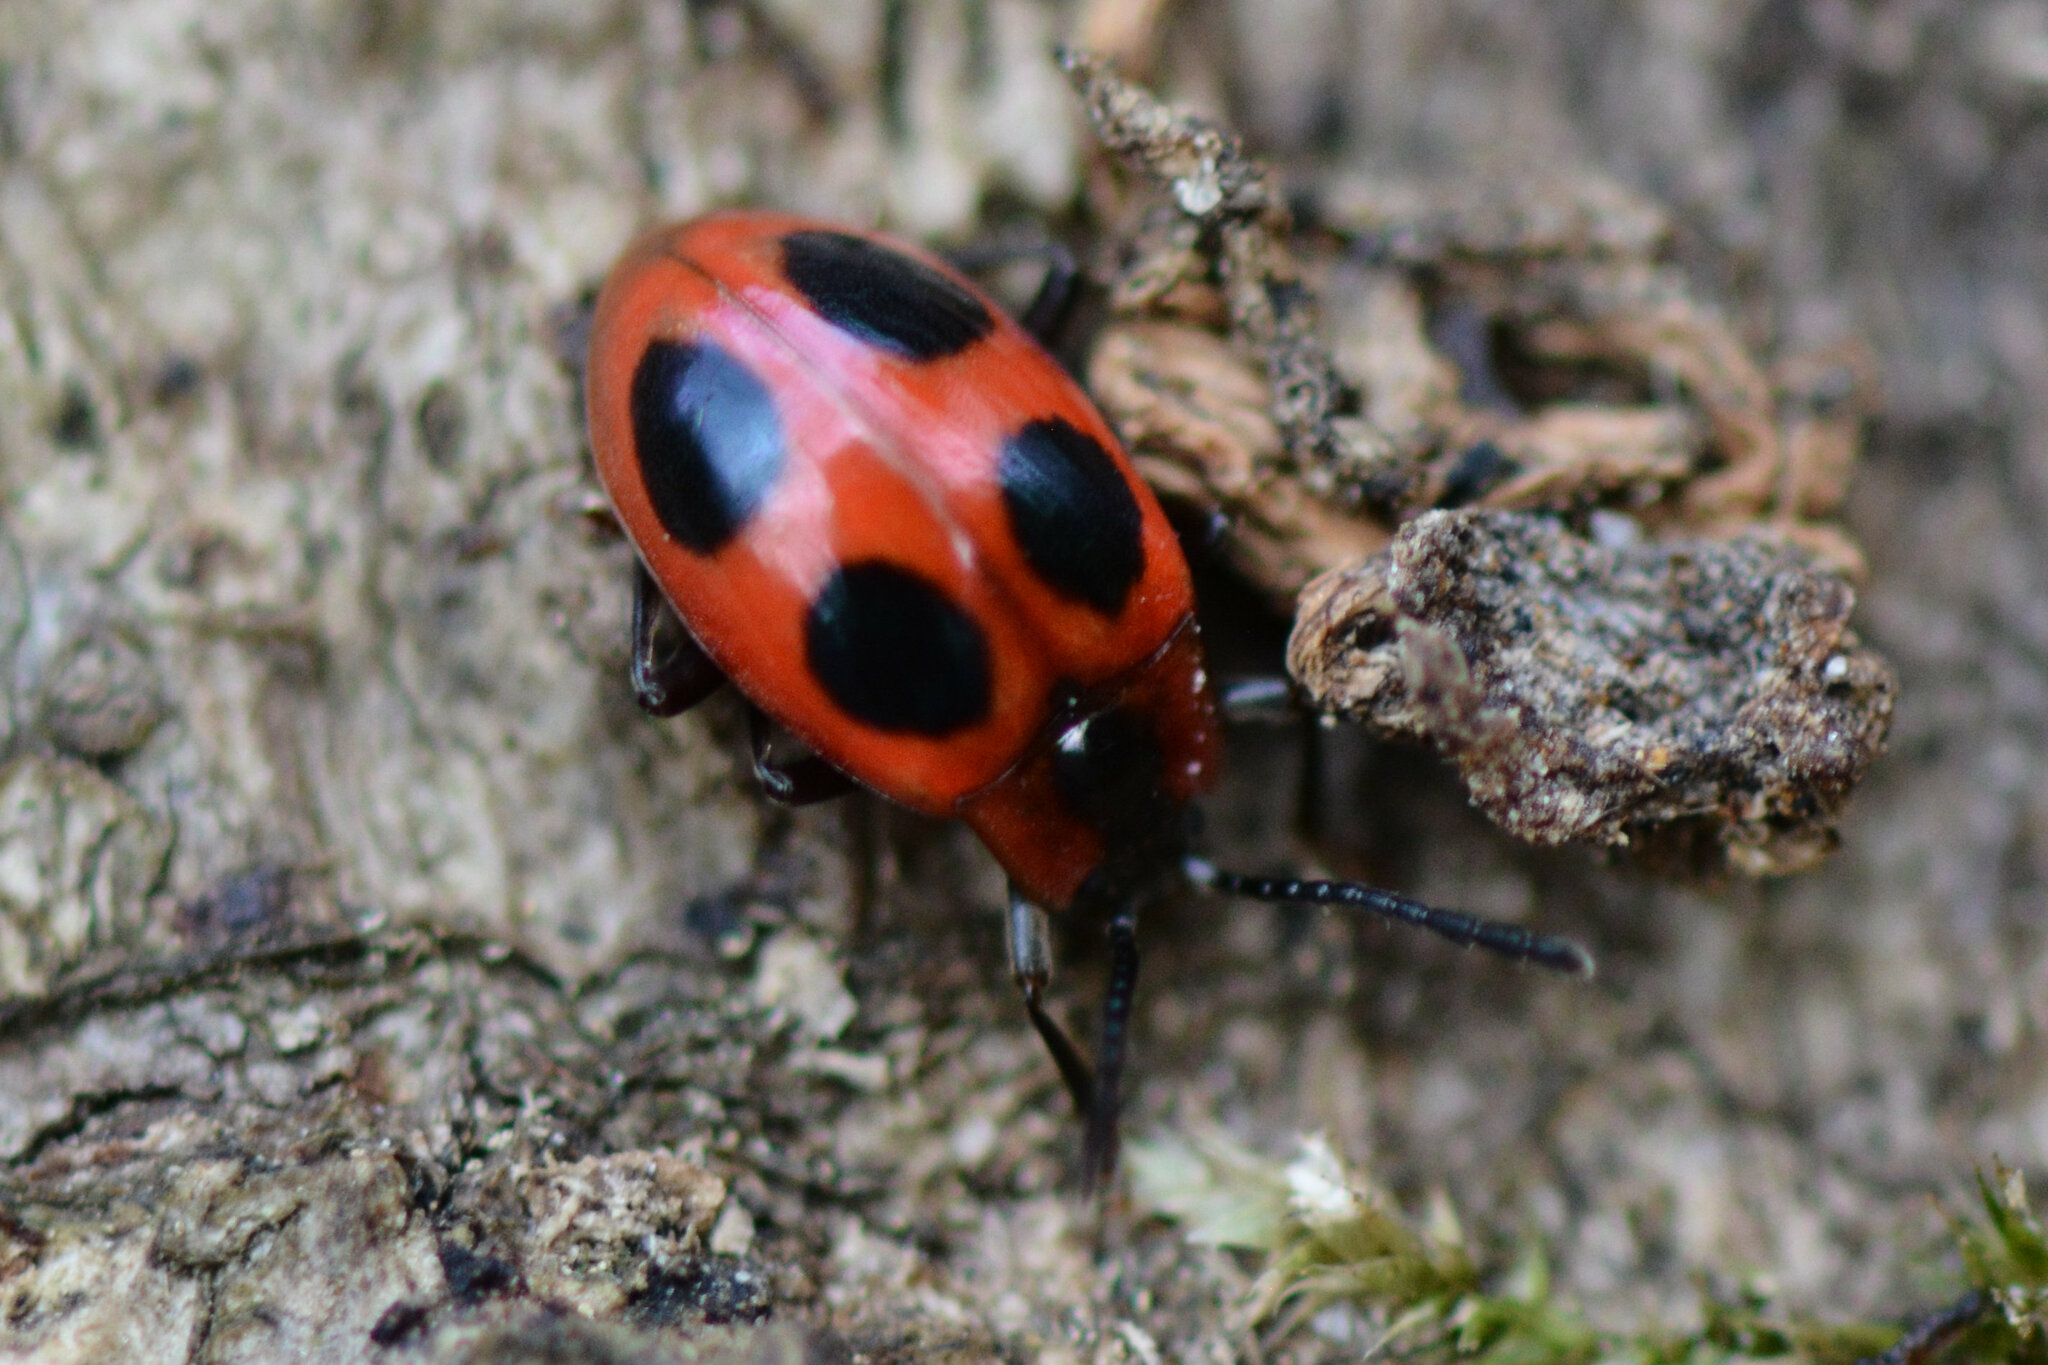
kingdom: Animalia
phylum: Arthropoda
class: Insecta
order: Coleoptera
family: Endomychidae
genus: Endomychus
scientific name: Endomychus coccineus
